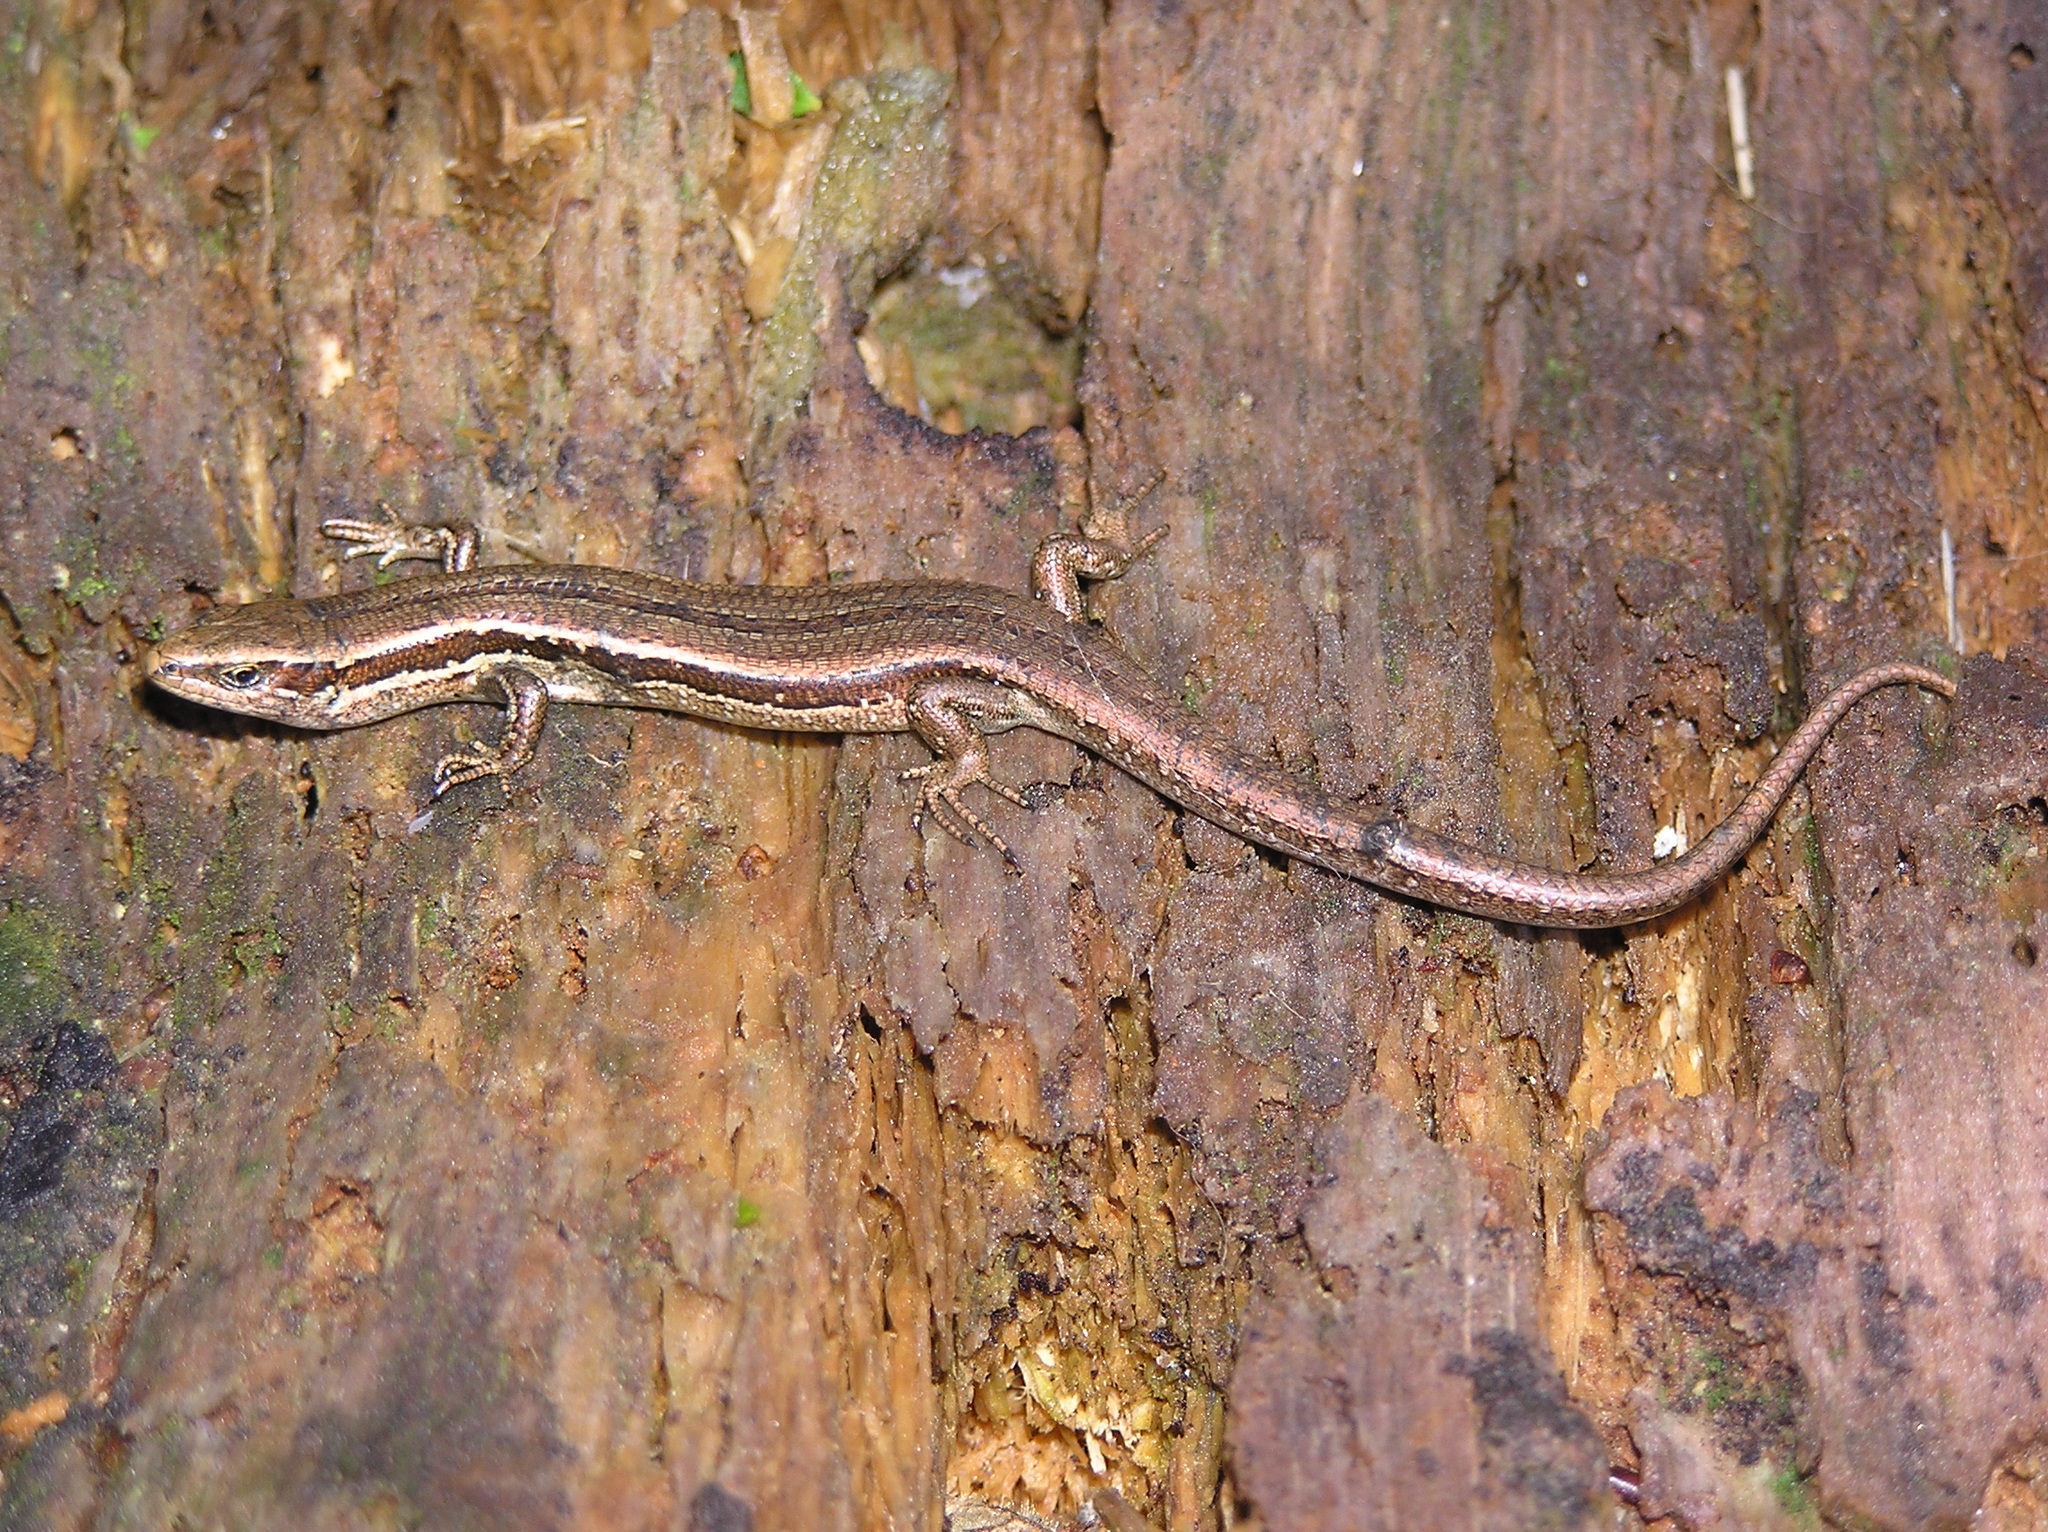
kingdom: Animalia
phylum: Chordata
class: Squamata
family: Scincidae
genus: Oligosoma
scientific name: Oligosoma polychroma
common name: Common new zealand skink
